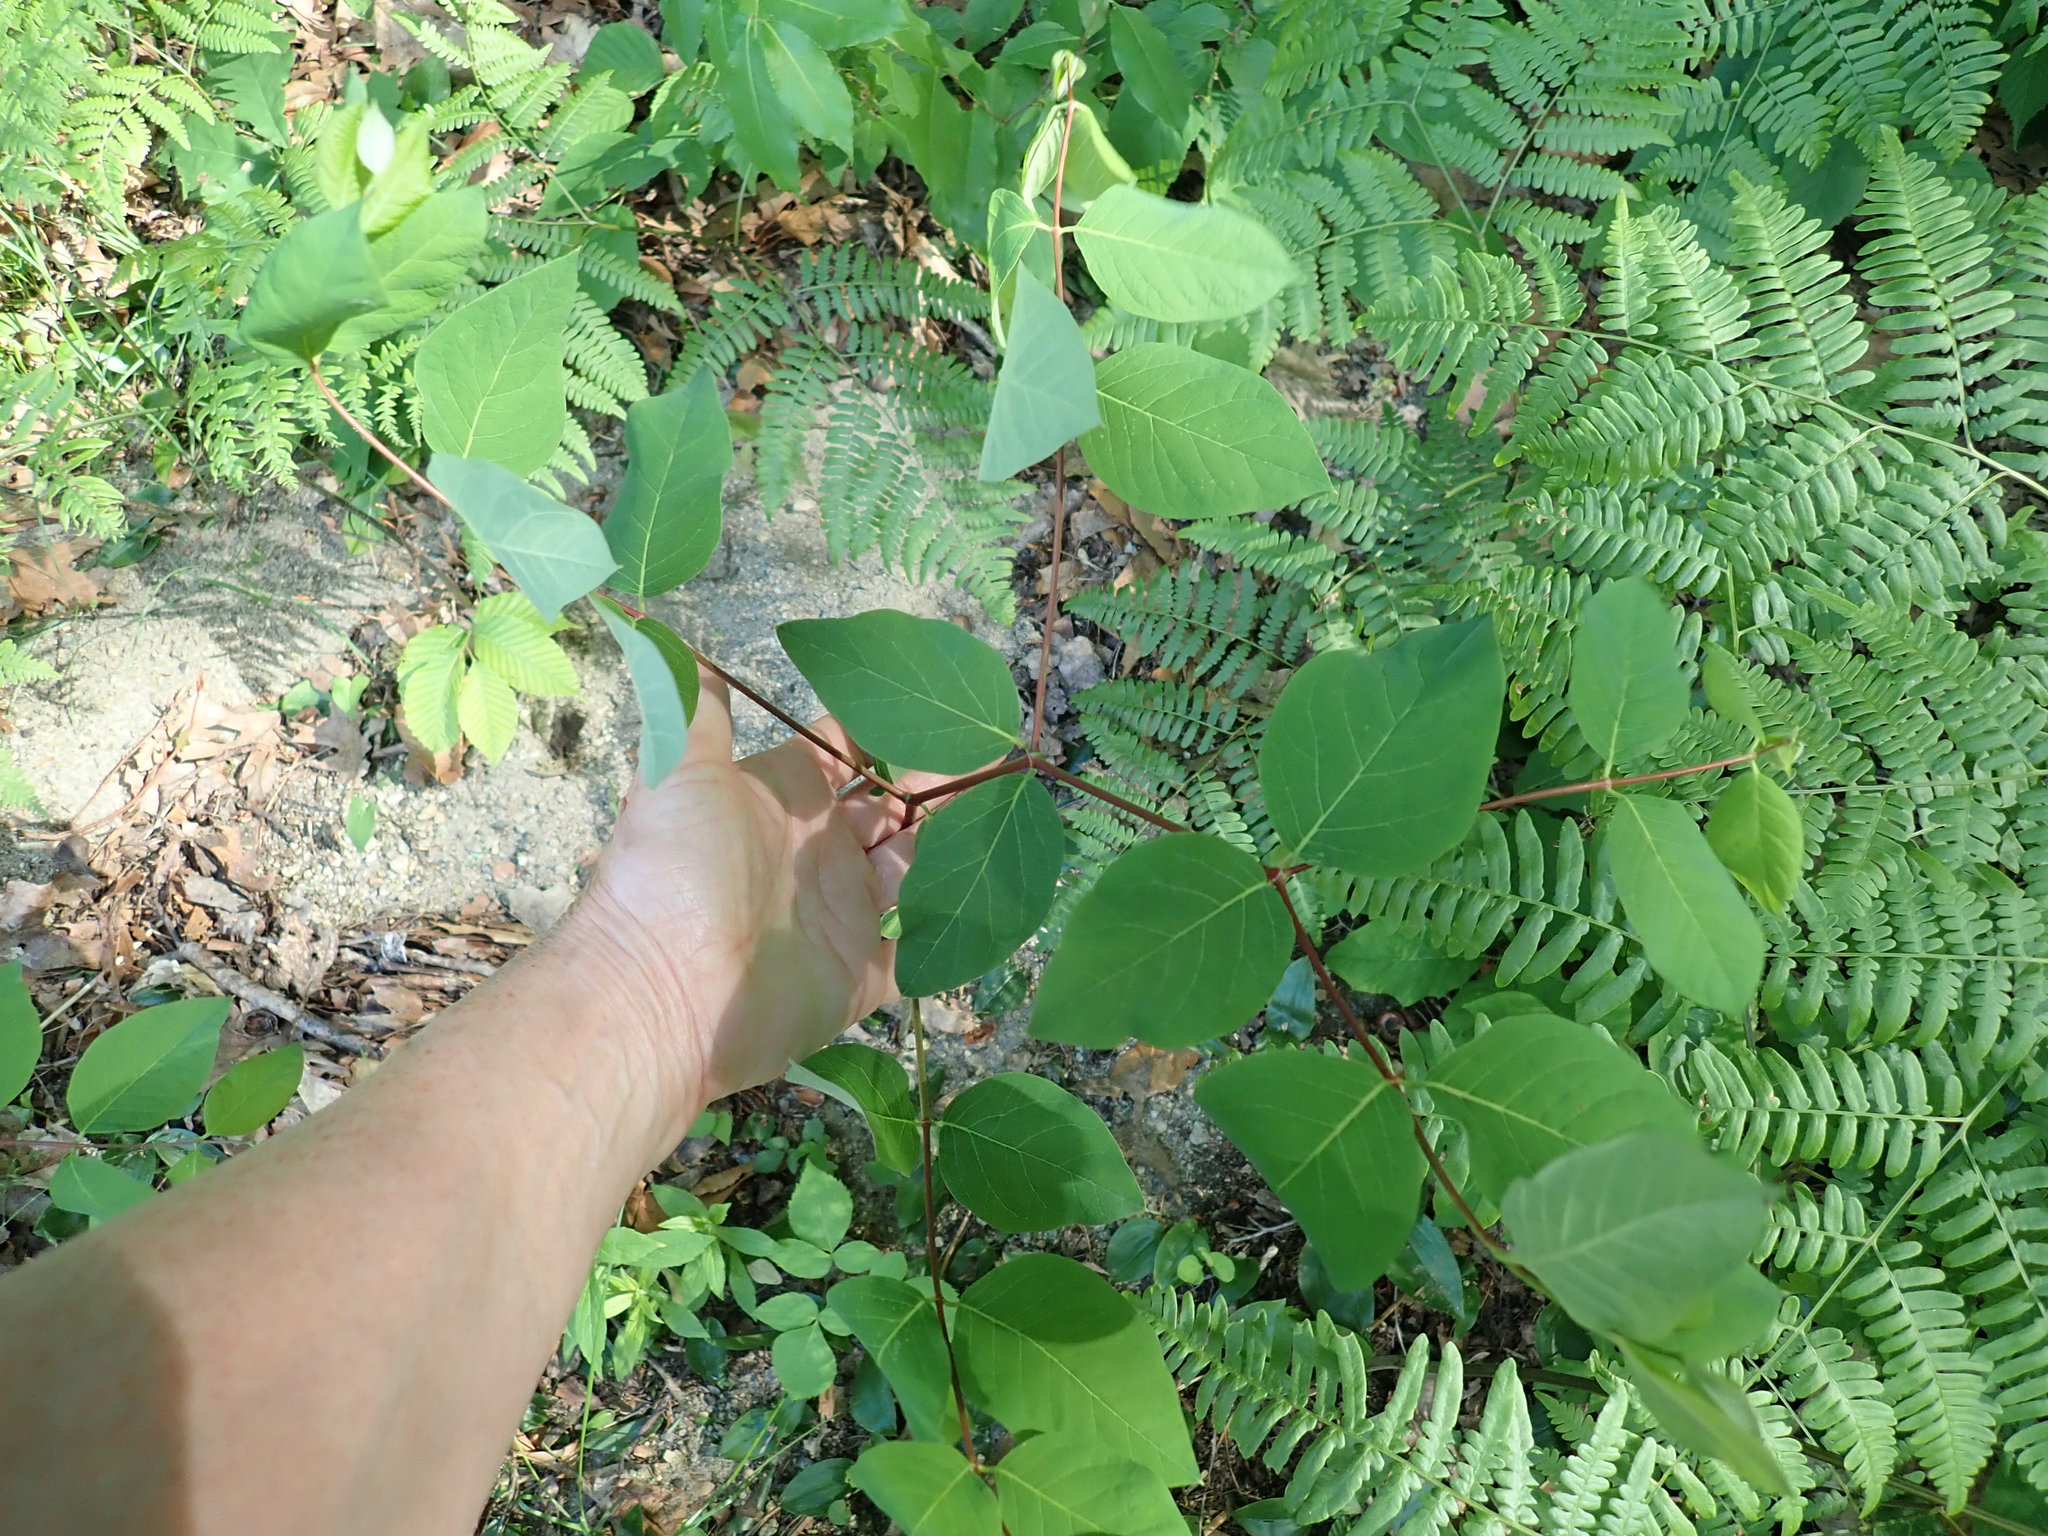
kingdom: Plantae
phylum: Tracheophyta
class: Magnoliopsida
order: Gentianales
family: Apocynaceae
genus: Apocynum
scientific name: Apocynum androsaemifolium
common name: Spreading dogbane
